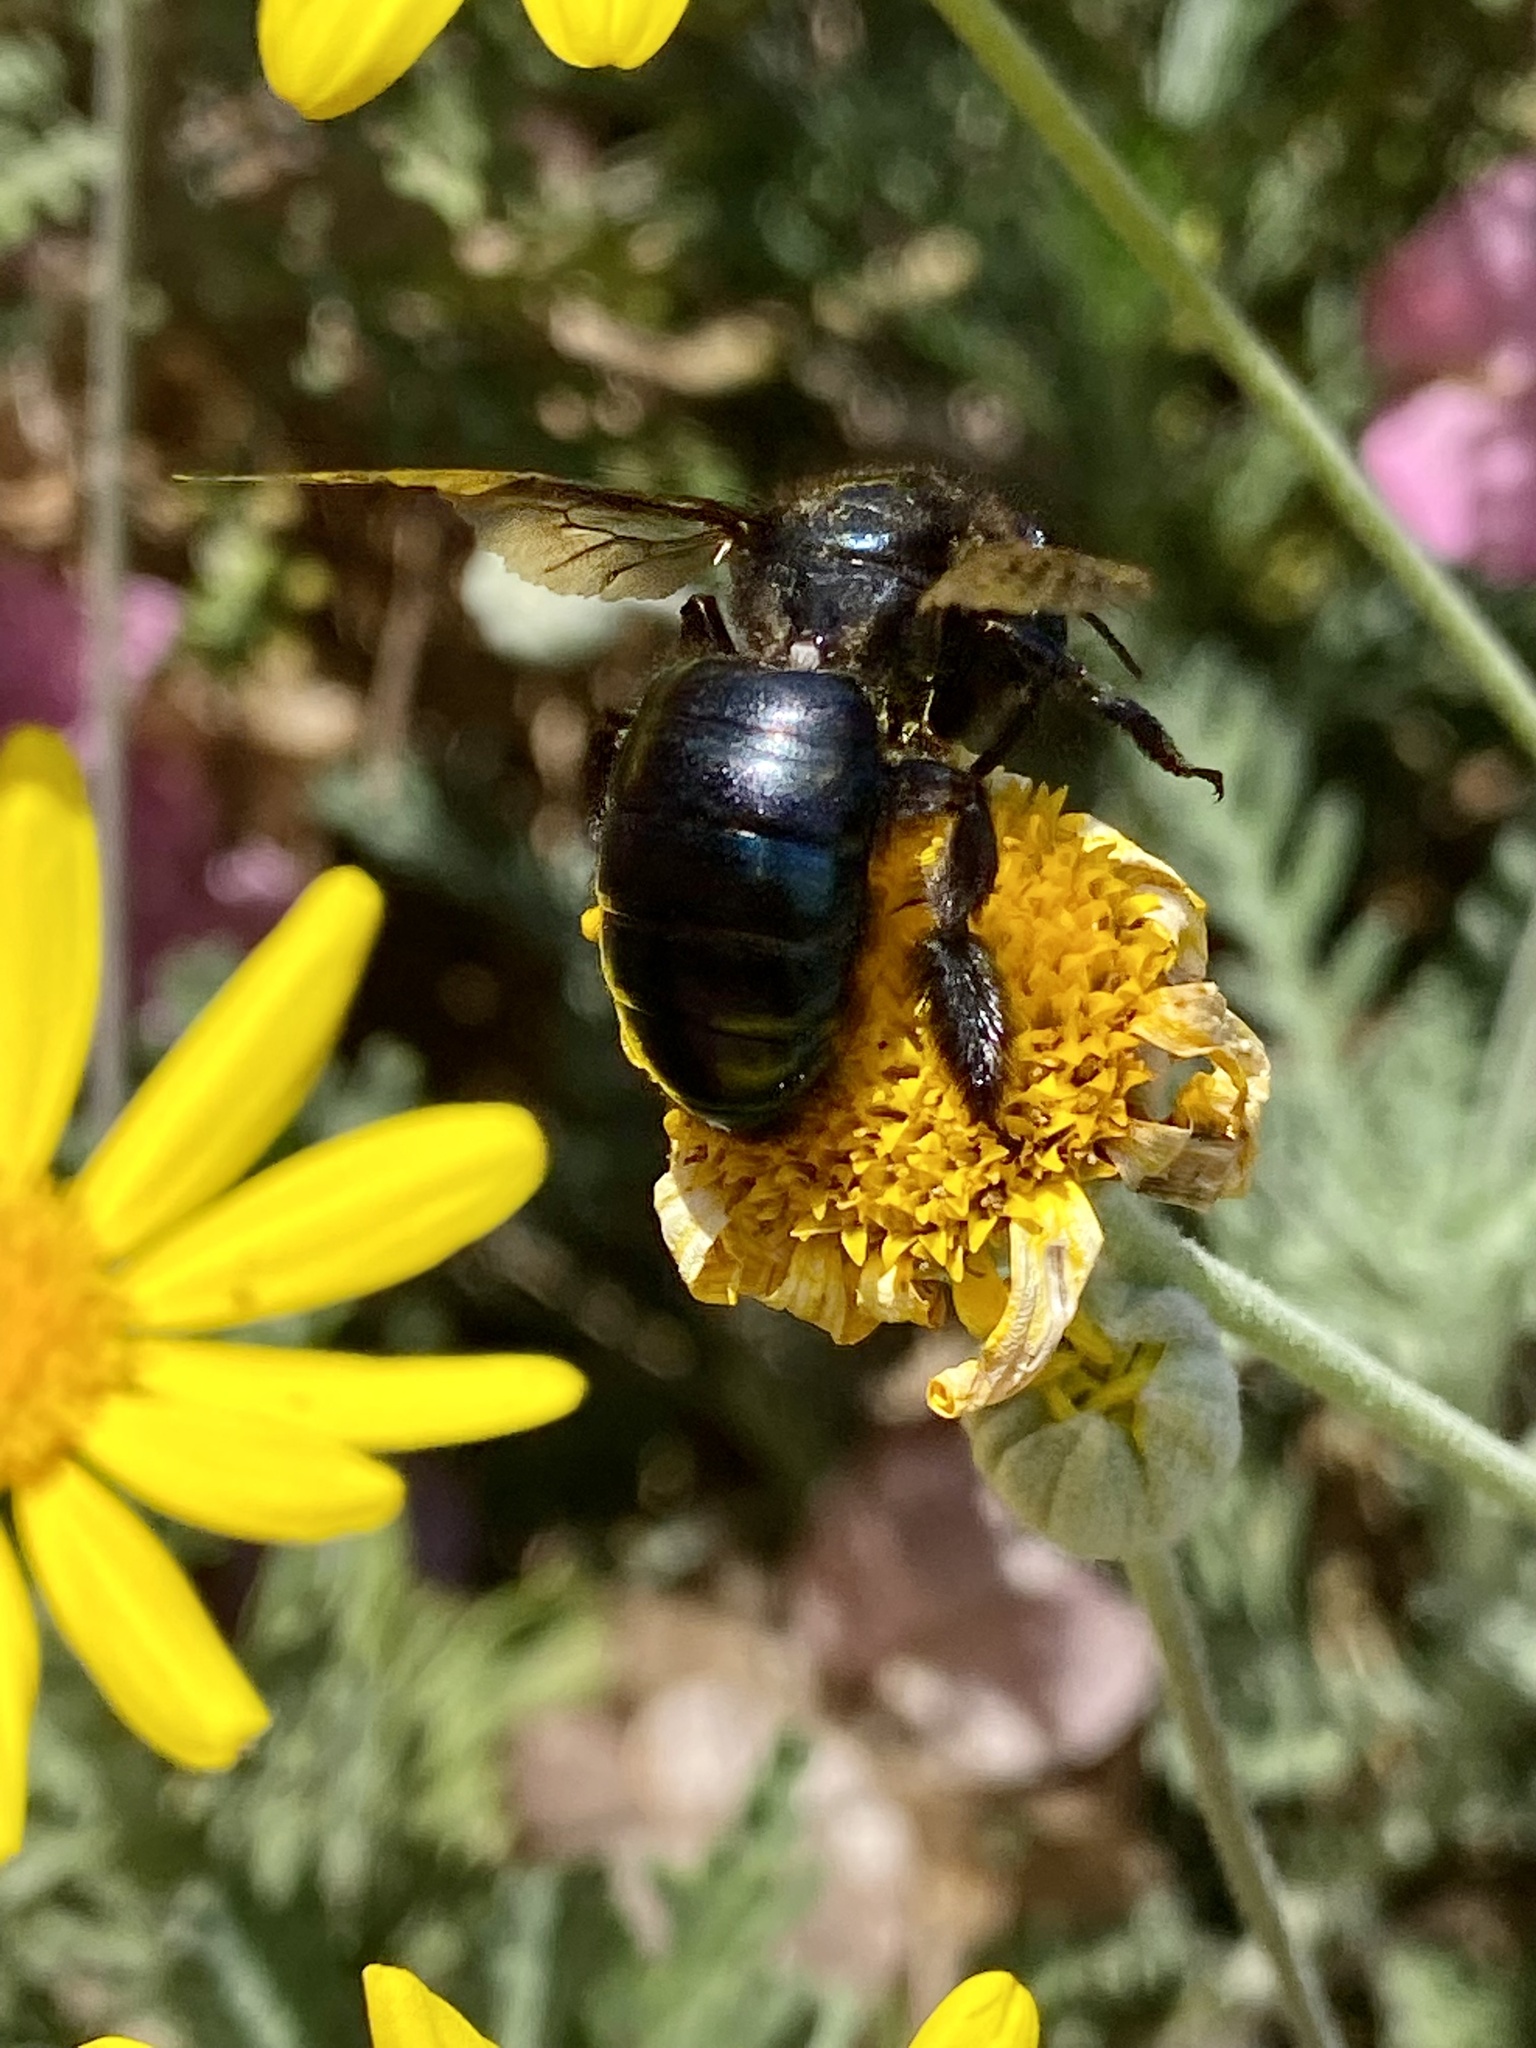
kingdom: Animalia
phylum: Arthropoda
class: Insecta
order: Hymenoptera
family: Apidae
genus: Xylocopa
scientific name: Xylocopa californica
